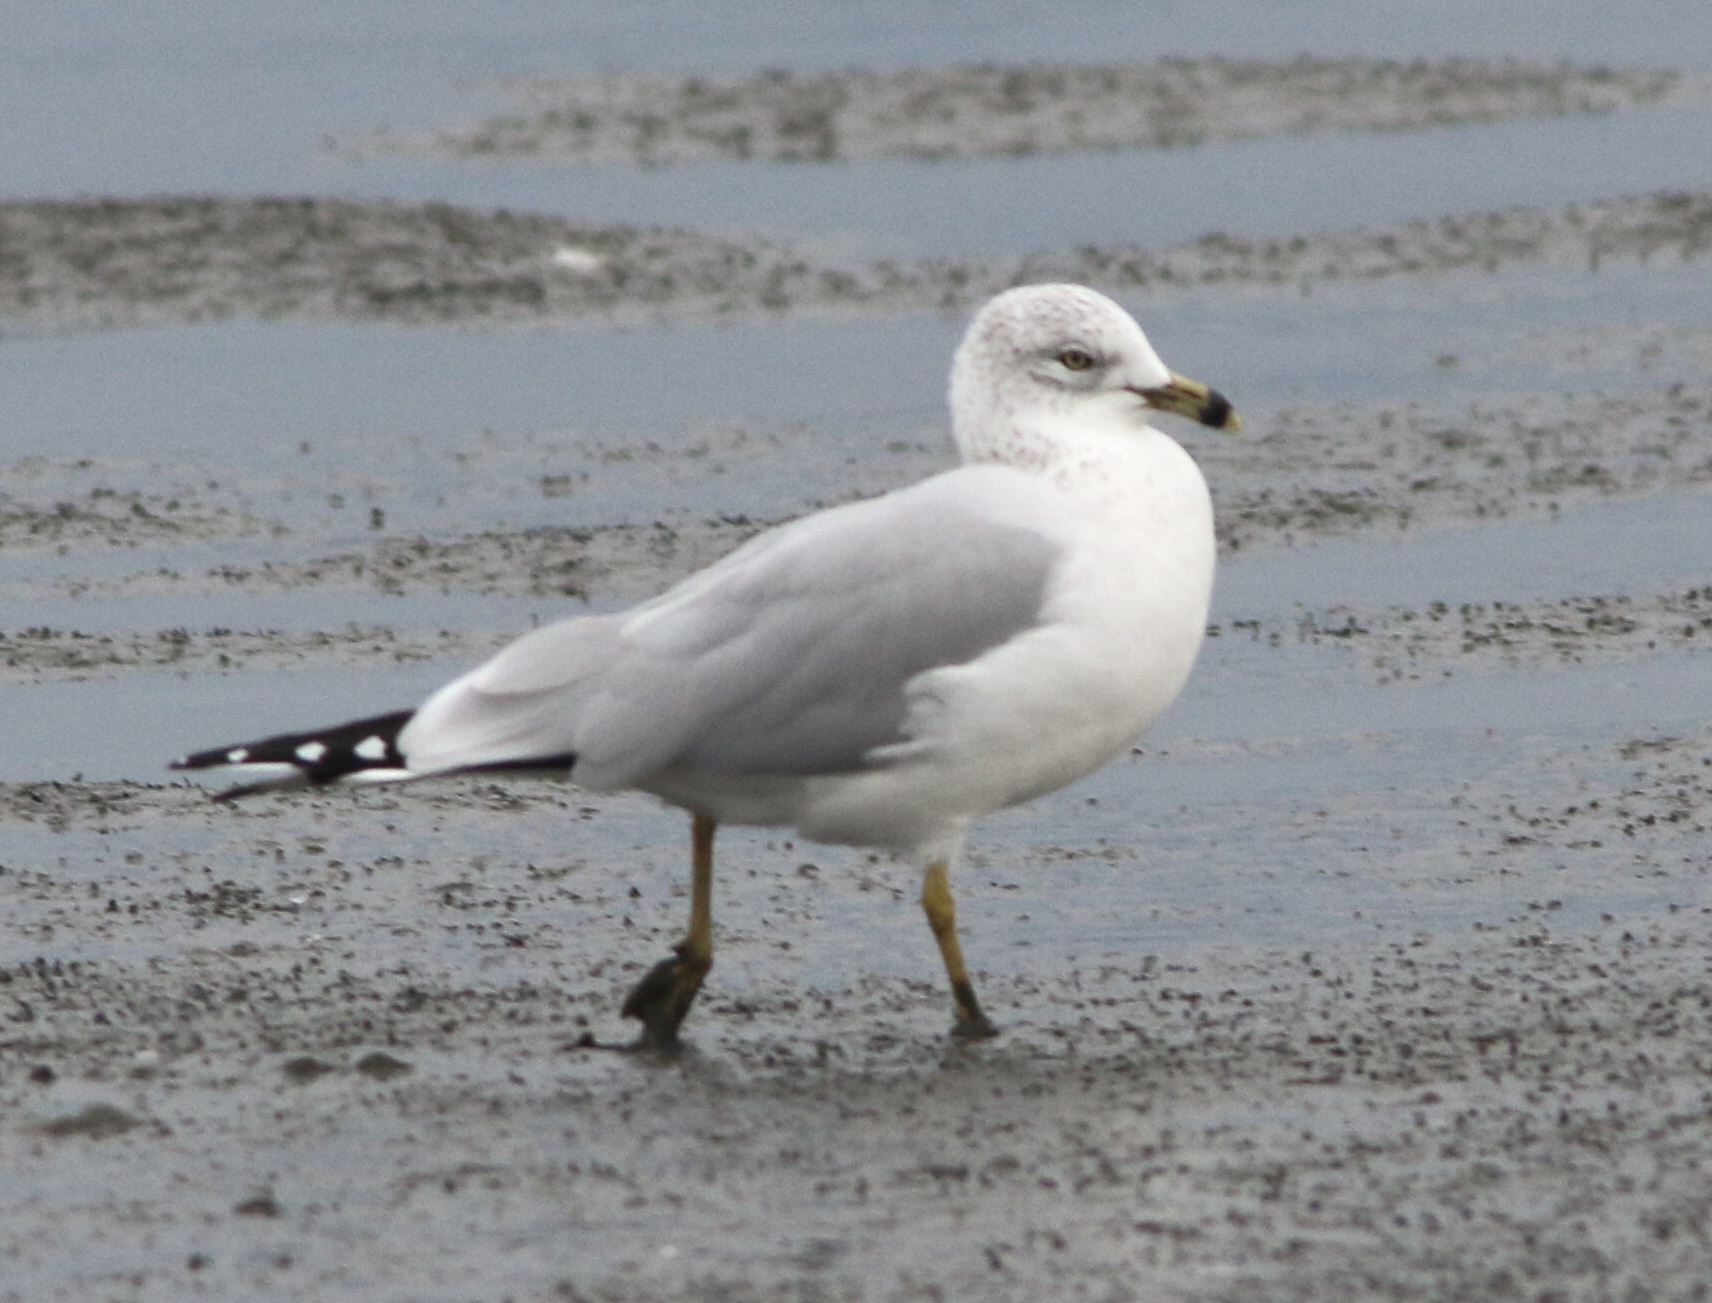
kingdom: Animalia
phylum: Chordata
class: Aves
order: Charadriiformes
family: Laridae
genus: Larus
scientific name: Larus delawarensis
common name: Ring-billed gull
